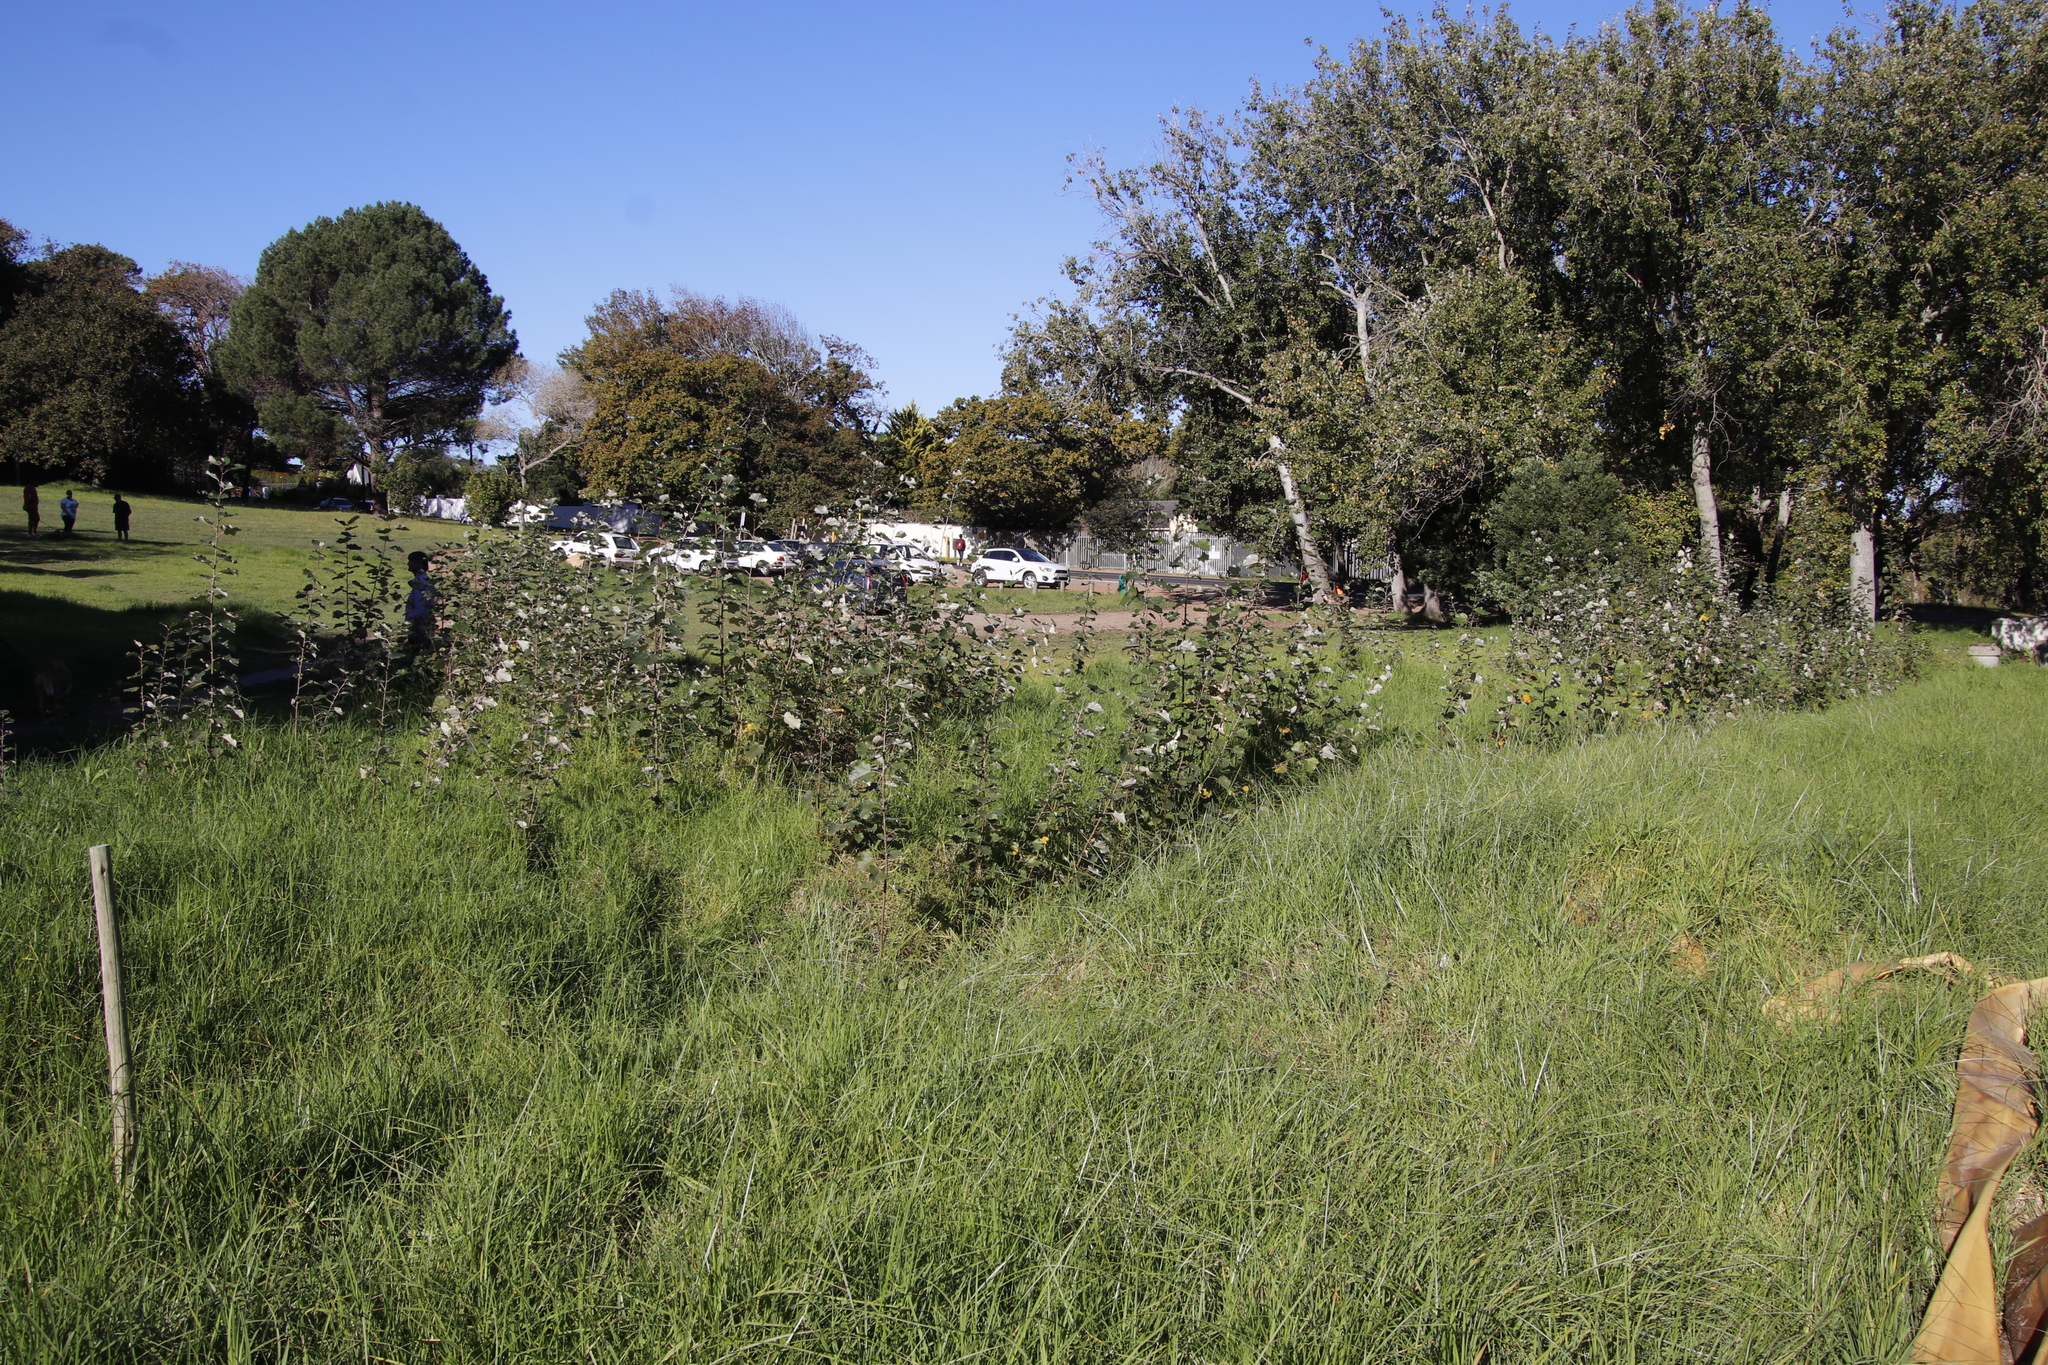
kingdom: Plantae
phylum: Tracheophyta
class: Magnoliopsida
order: Malpighiales
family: Salicaceae
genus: Populus
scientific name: Populus canescens
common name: Gray poplar
